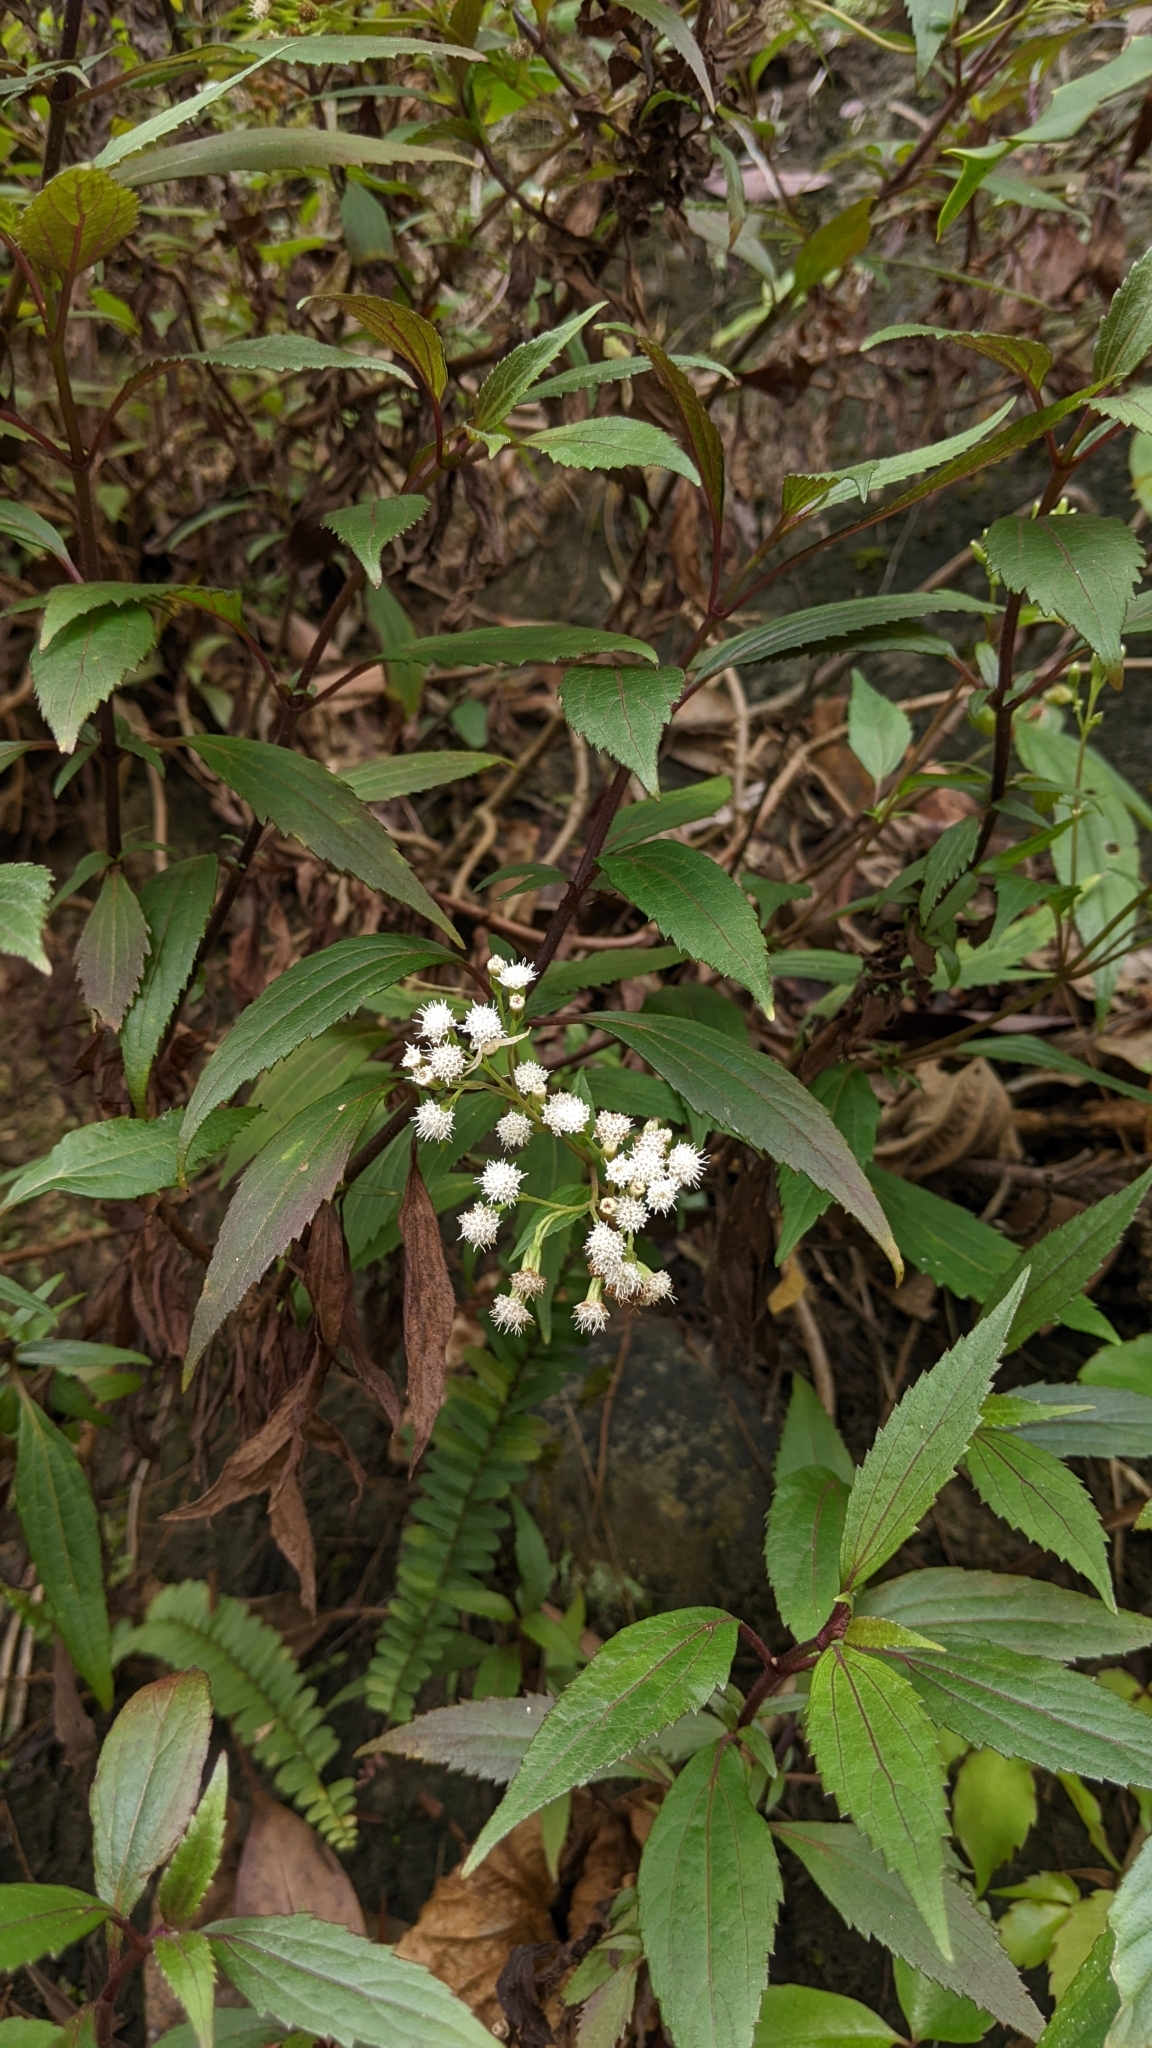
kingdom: Plantae
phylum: Tracheophyta
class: Magnoliopsida
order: Asterales
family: Asteraceae
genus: Ageratina
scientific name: Ageratina riparia
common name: Creeping croftonweed
